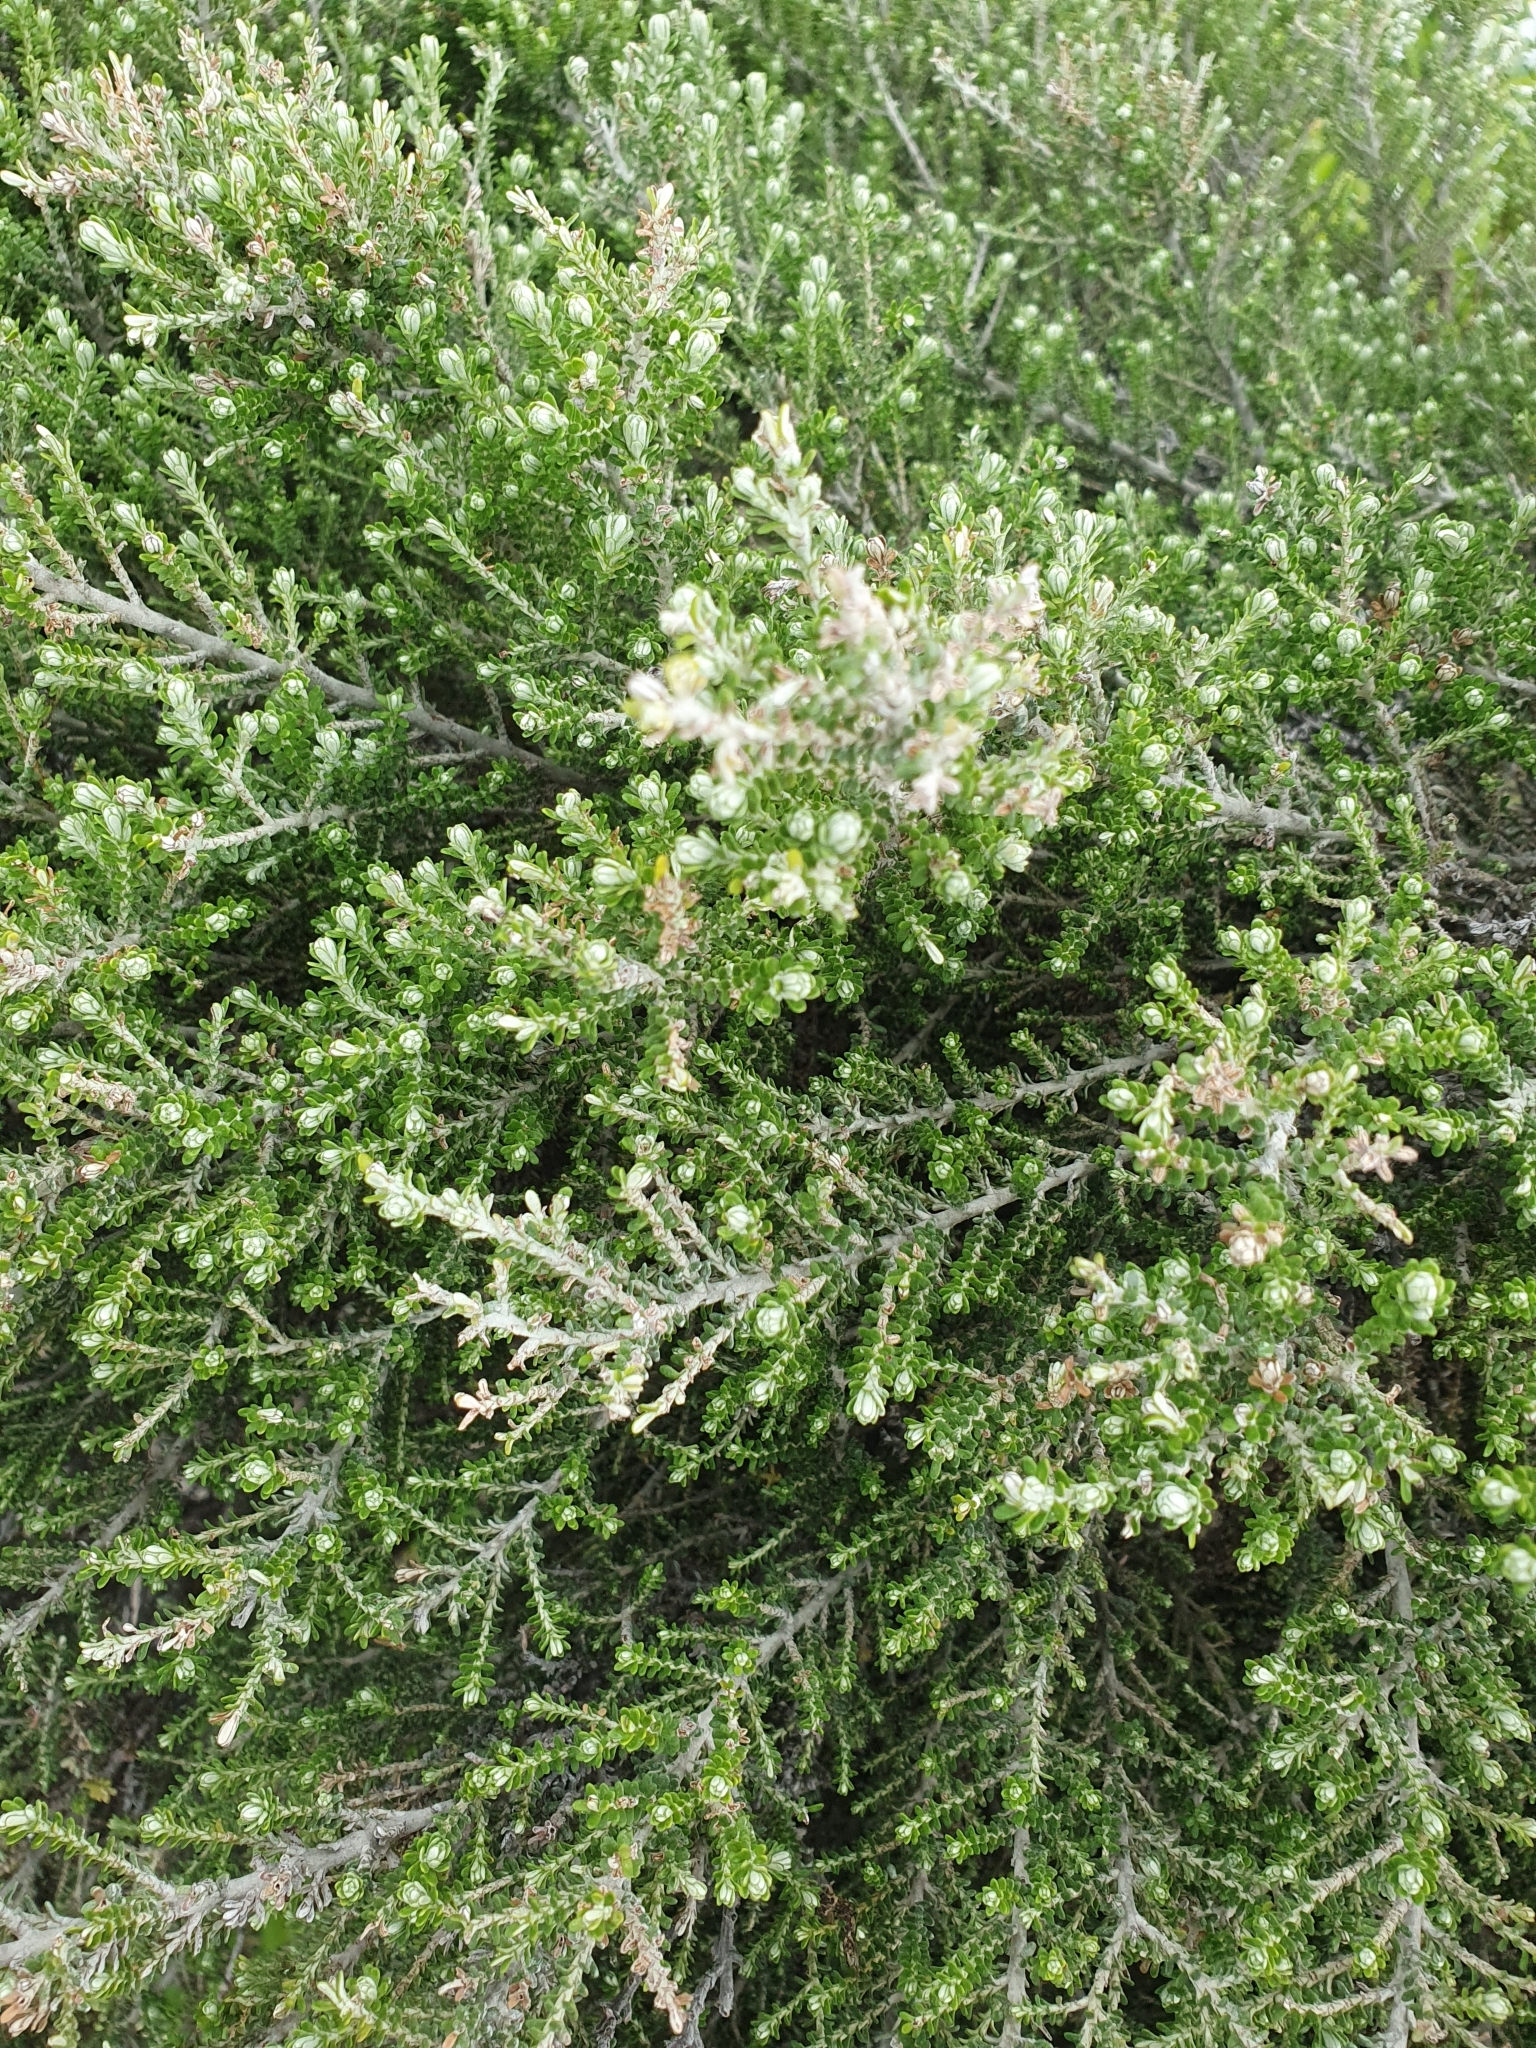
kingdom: Plantae
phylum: Tracheophyta
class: Magnoliopsida
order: Asterales
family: Asteraceae
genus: Ozothamnus
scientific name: Ozothamnus leptophyllus
